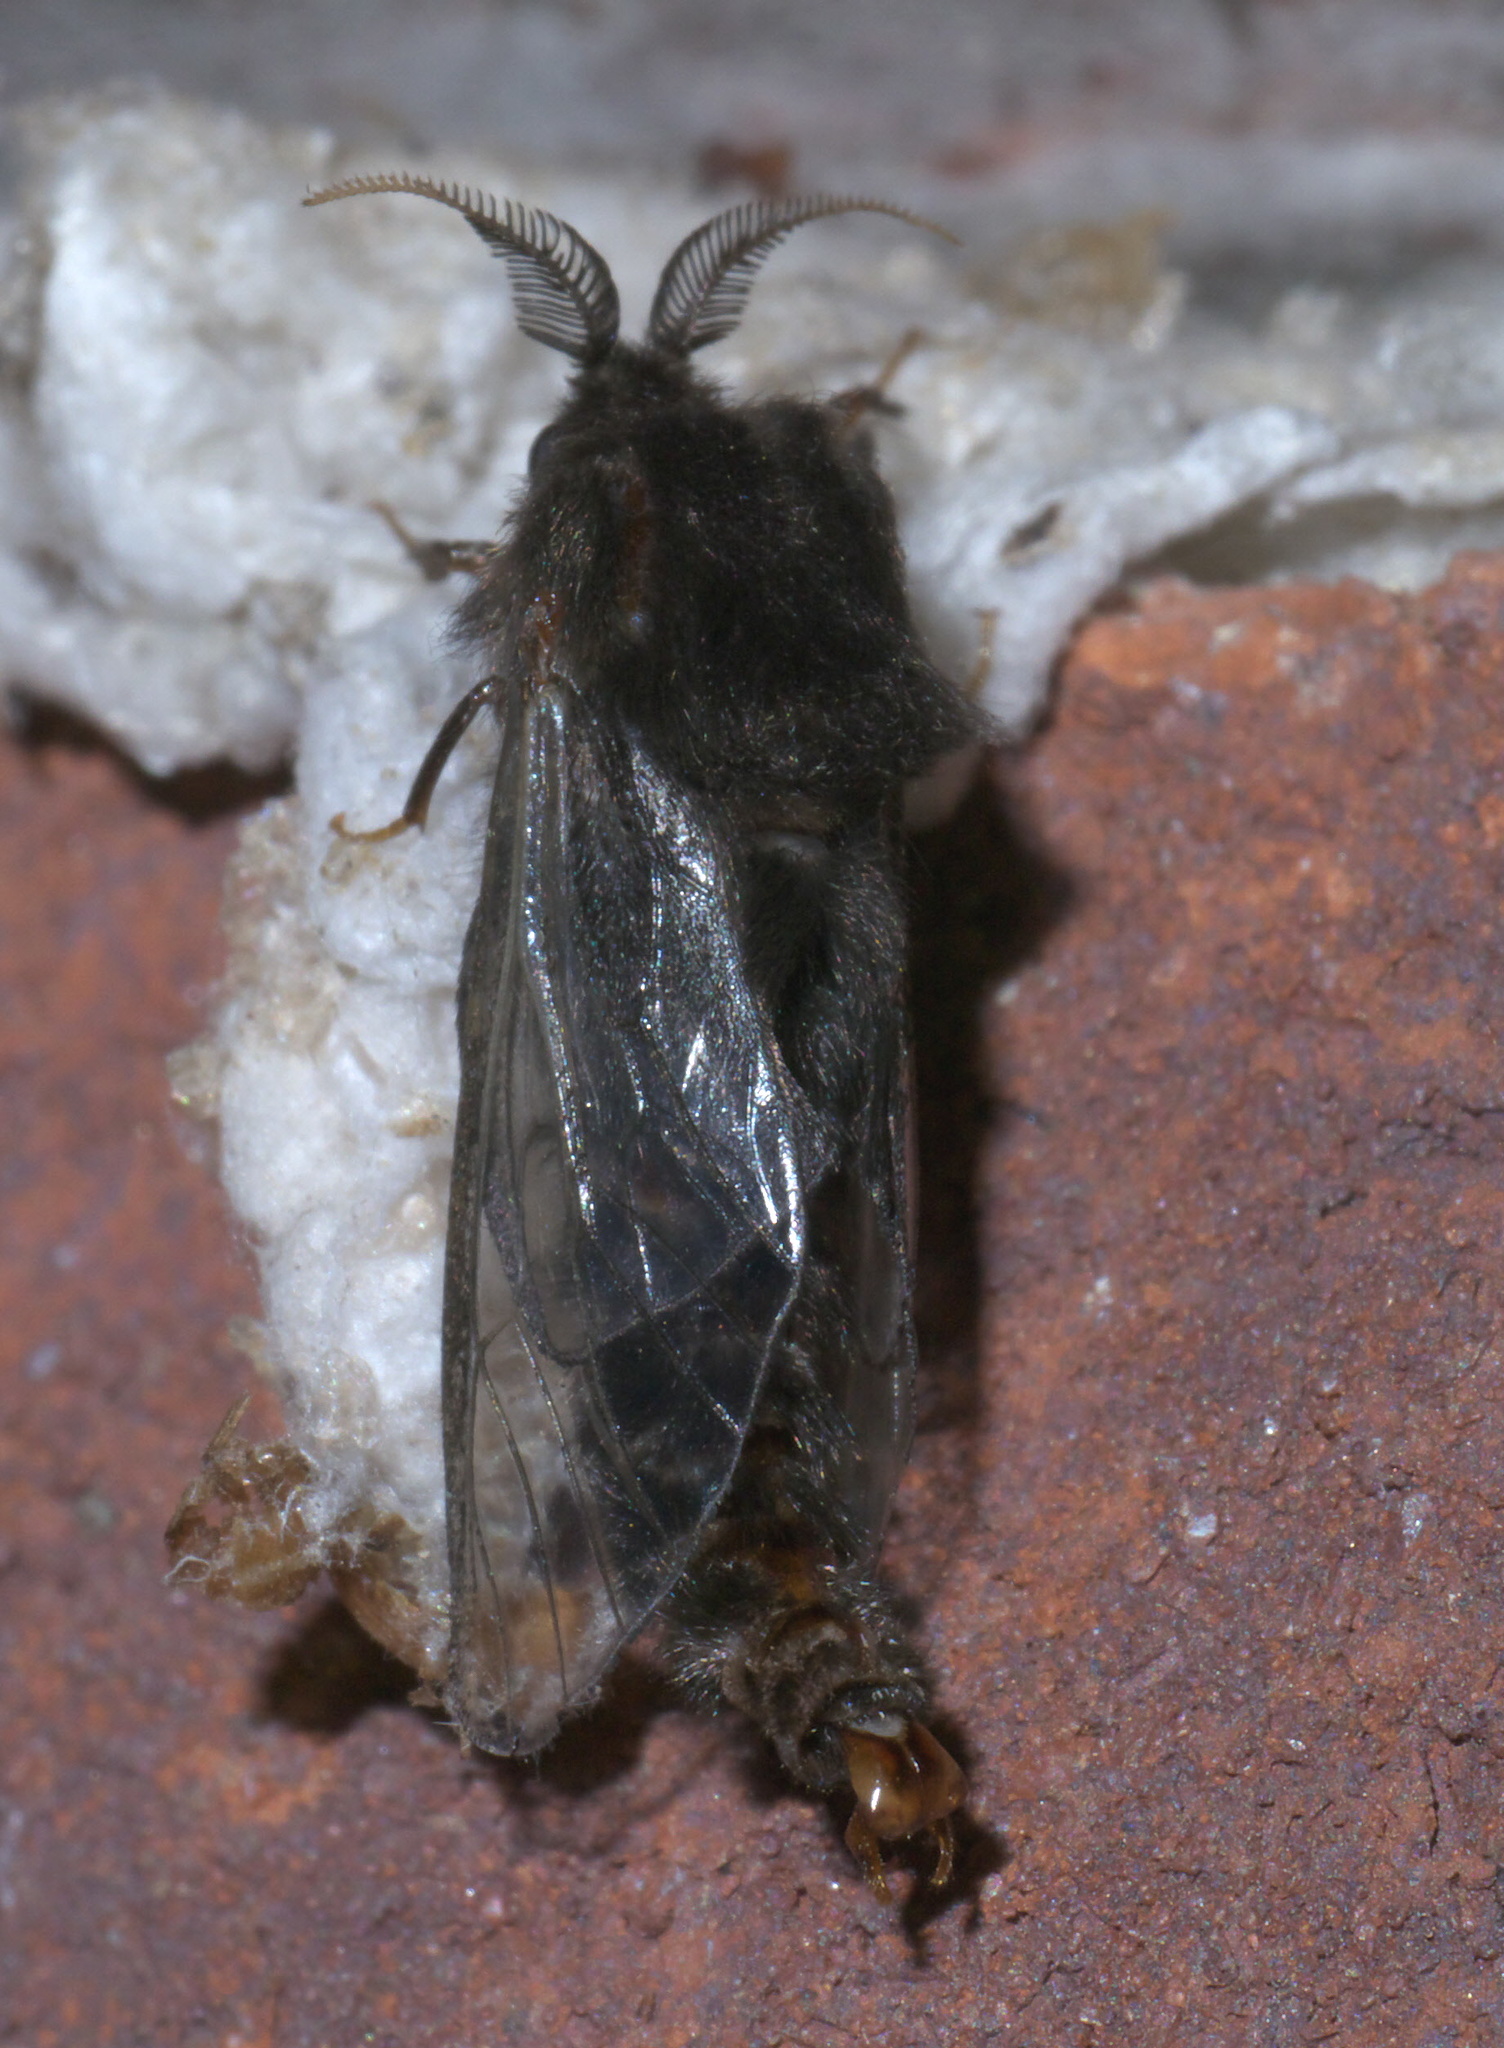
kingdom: Animalia
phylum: Arthropoda
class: Insecta
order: Lepidoptera
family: Psychidae
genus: Thyridopteryx
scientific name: Thyridopteryx ephemeraeformis
